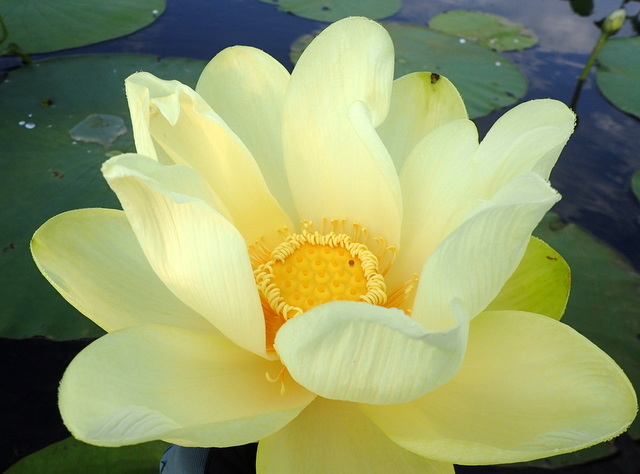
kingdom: Plantae
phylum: Tracheophyta
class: Magnoliopsida
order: Proteales
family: Nelumbonaceae
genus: Nelumbo
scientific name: Nelumbo lutea
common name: American lotus
